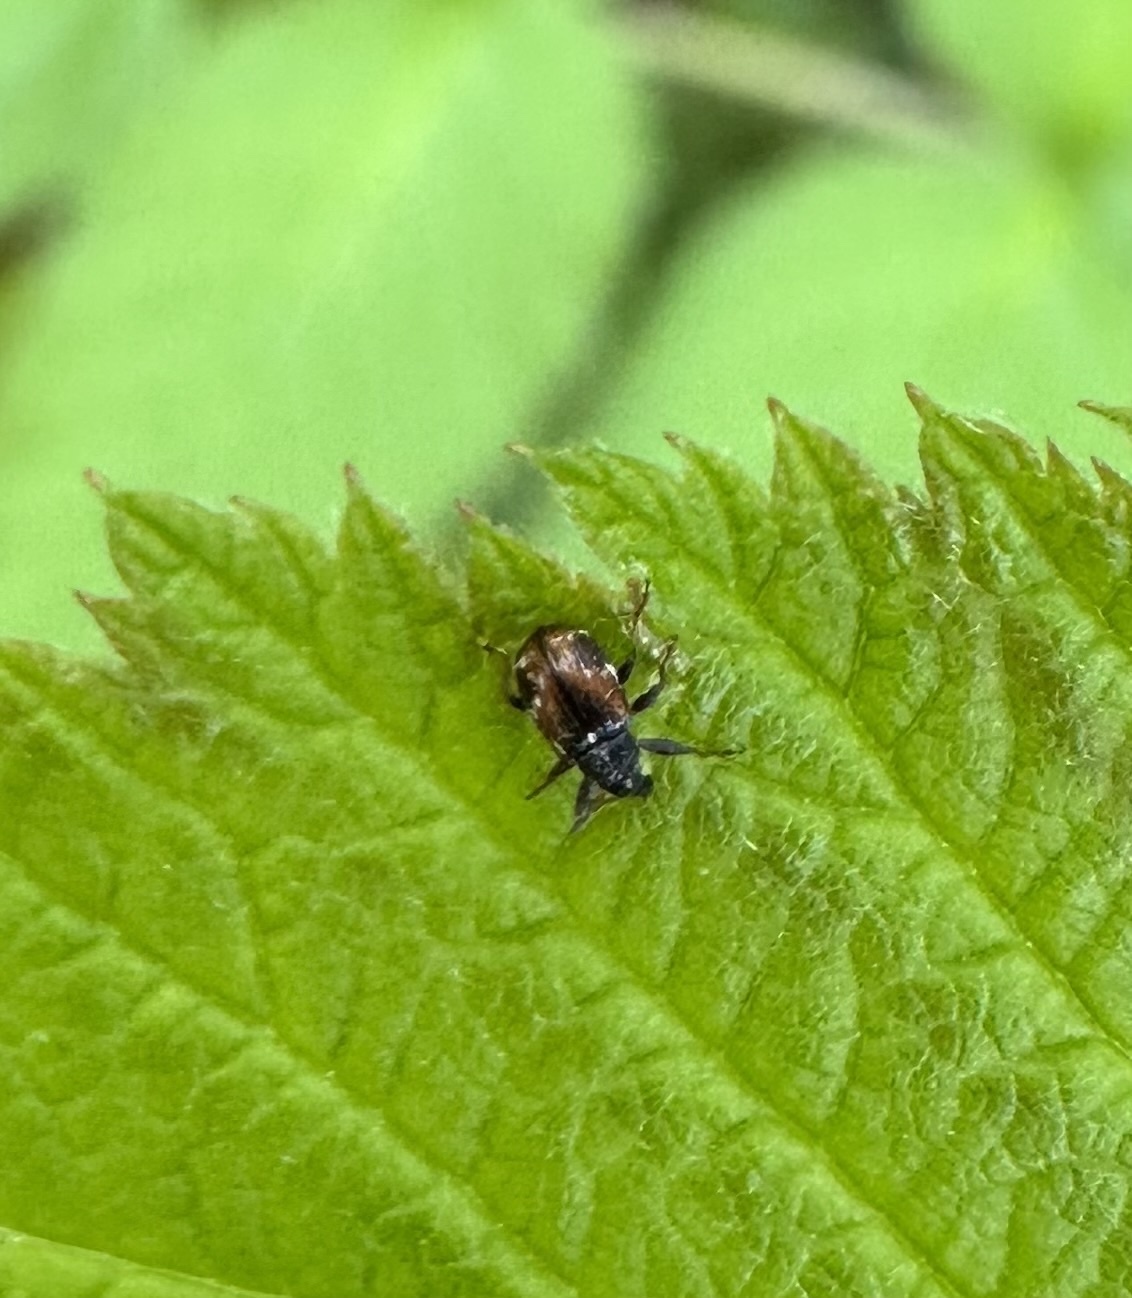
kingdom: Animalia
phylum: Arthropoda
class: Insecta
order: Coleoptera
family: Curculionidae
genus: Anthonomus
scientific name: Anthonomus signatus
